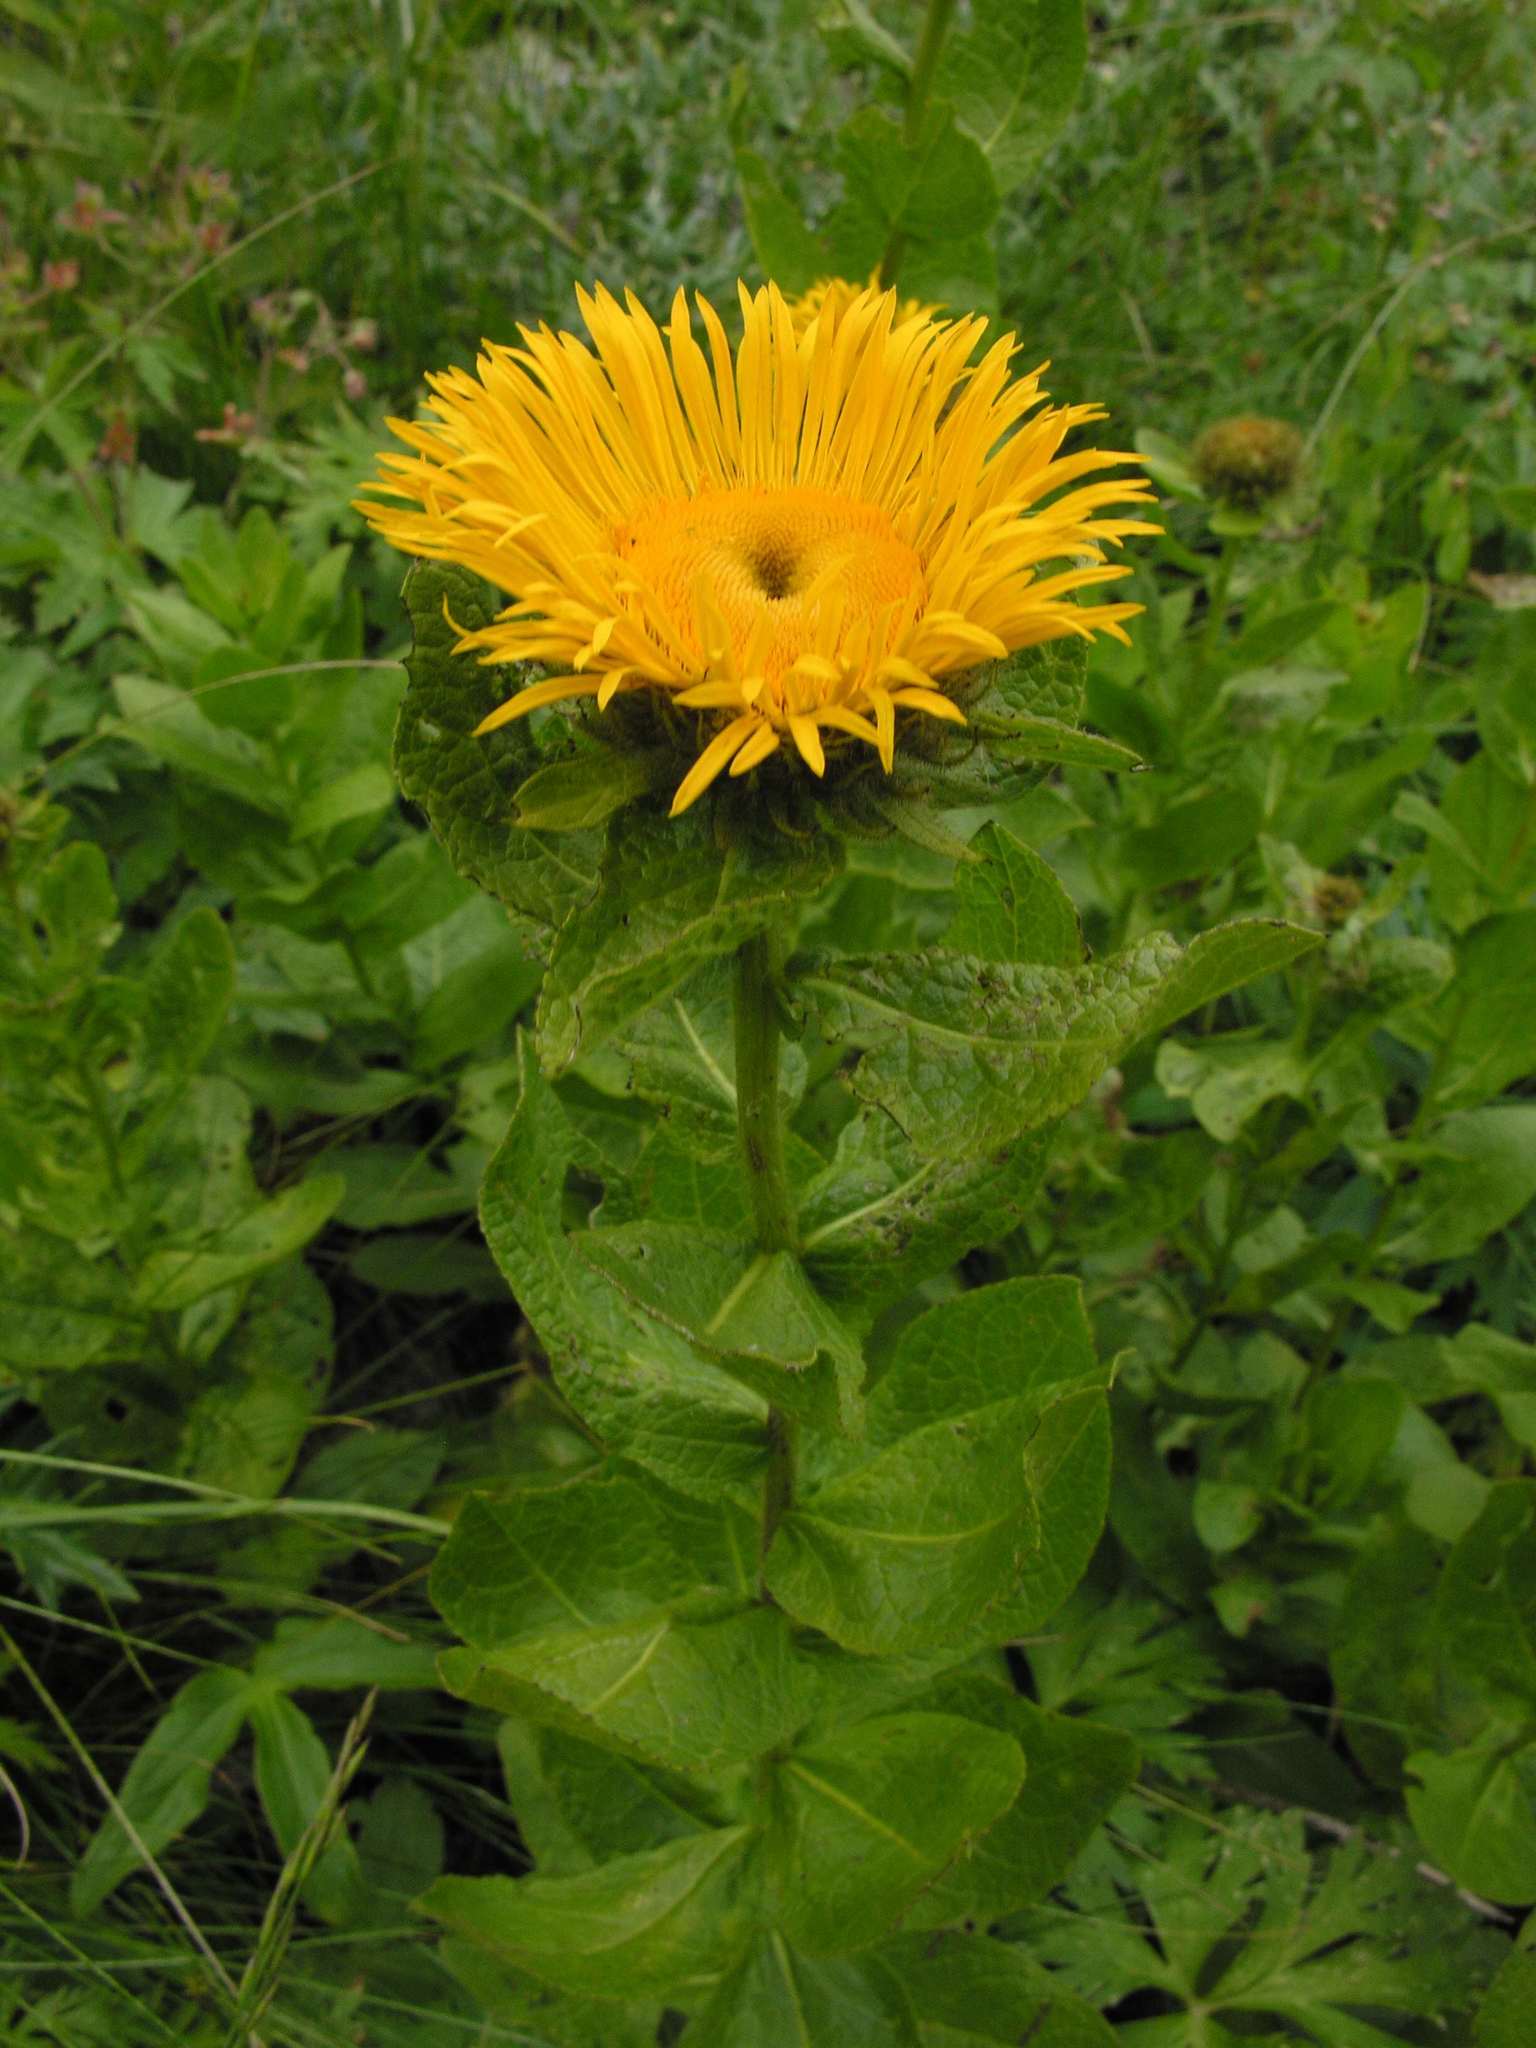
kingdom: Plantae
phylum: Tracheophyta
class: Magnoliopsida
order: Asterales
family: Asteraceae
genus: Pentanema
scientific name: Pentanema orientale
